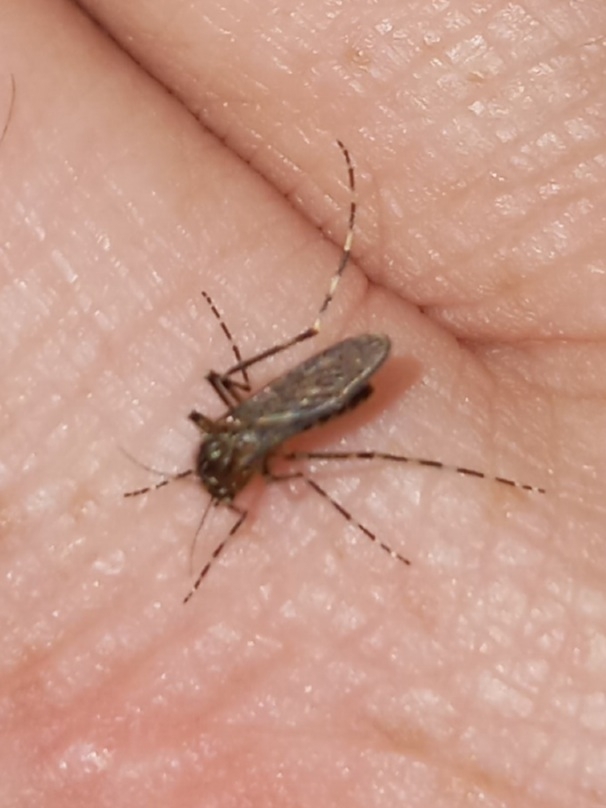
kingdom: Animalia
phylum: Arthropoda
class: Insecta
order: Diptera
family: Culicidae
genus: Coquillettidia
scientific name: Coquillettidia perturbans
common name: Cattail mosquito
